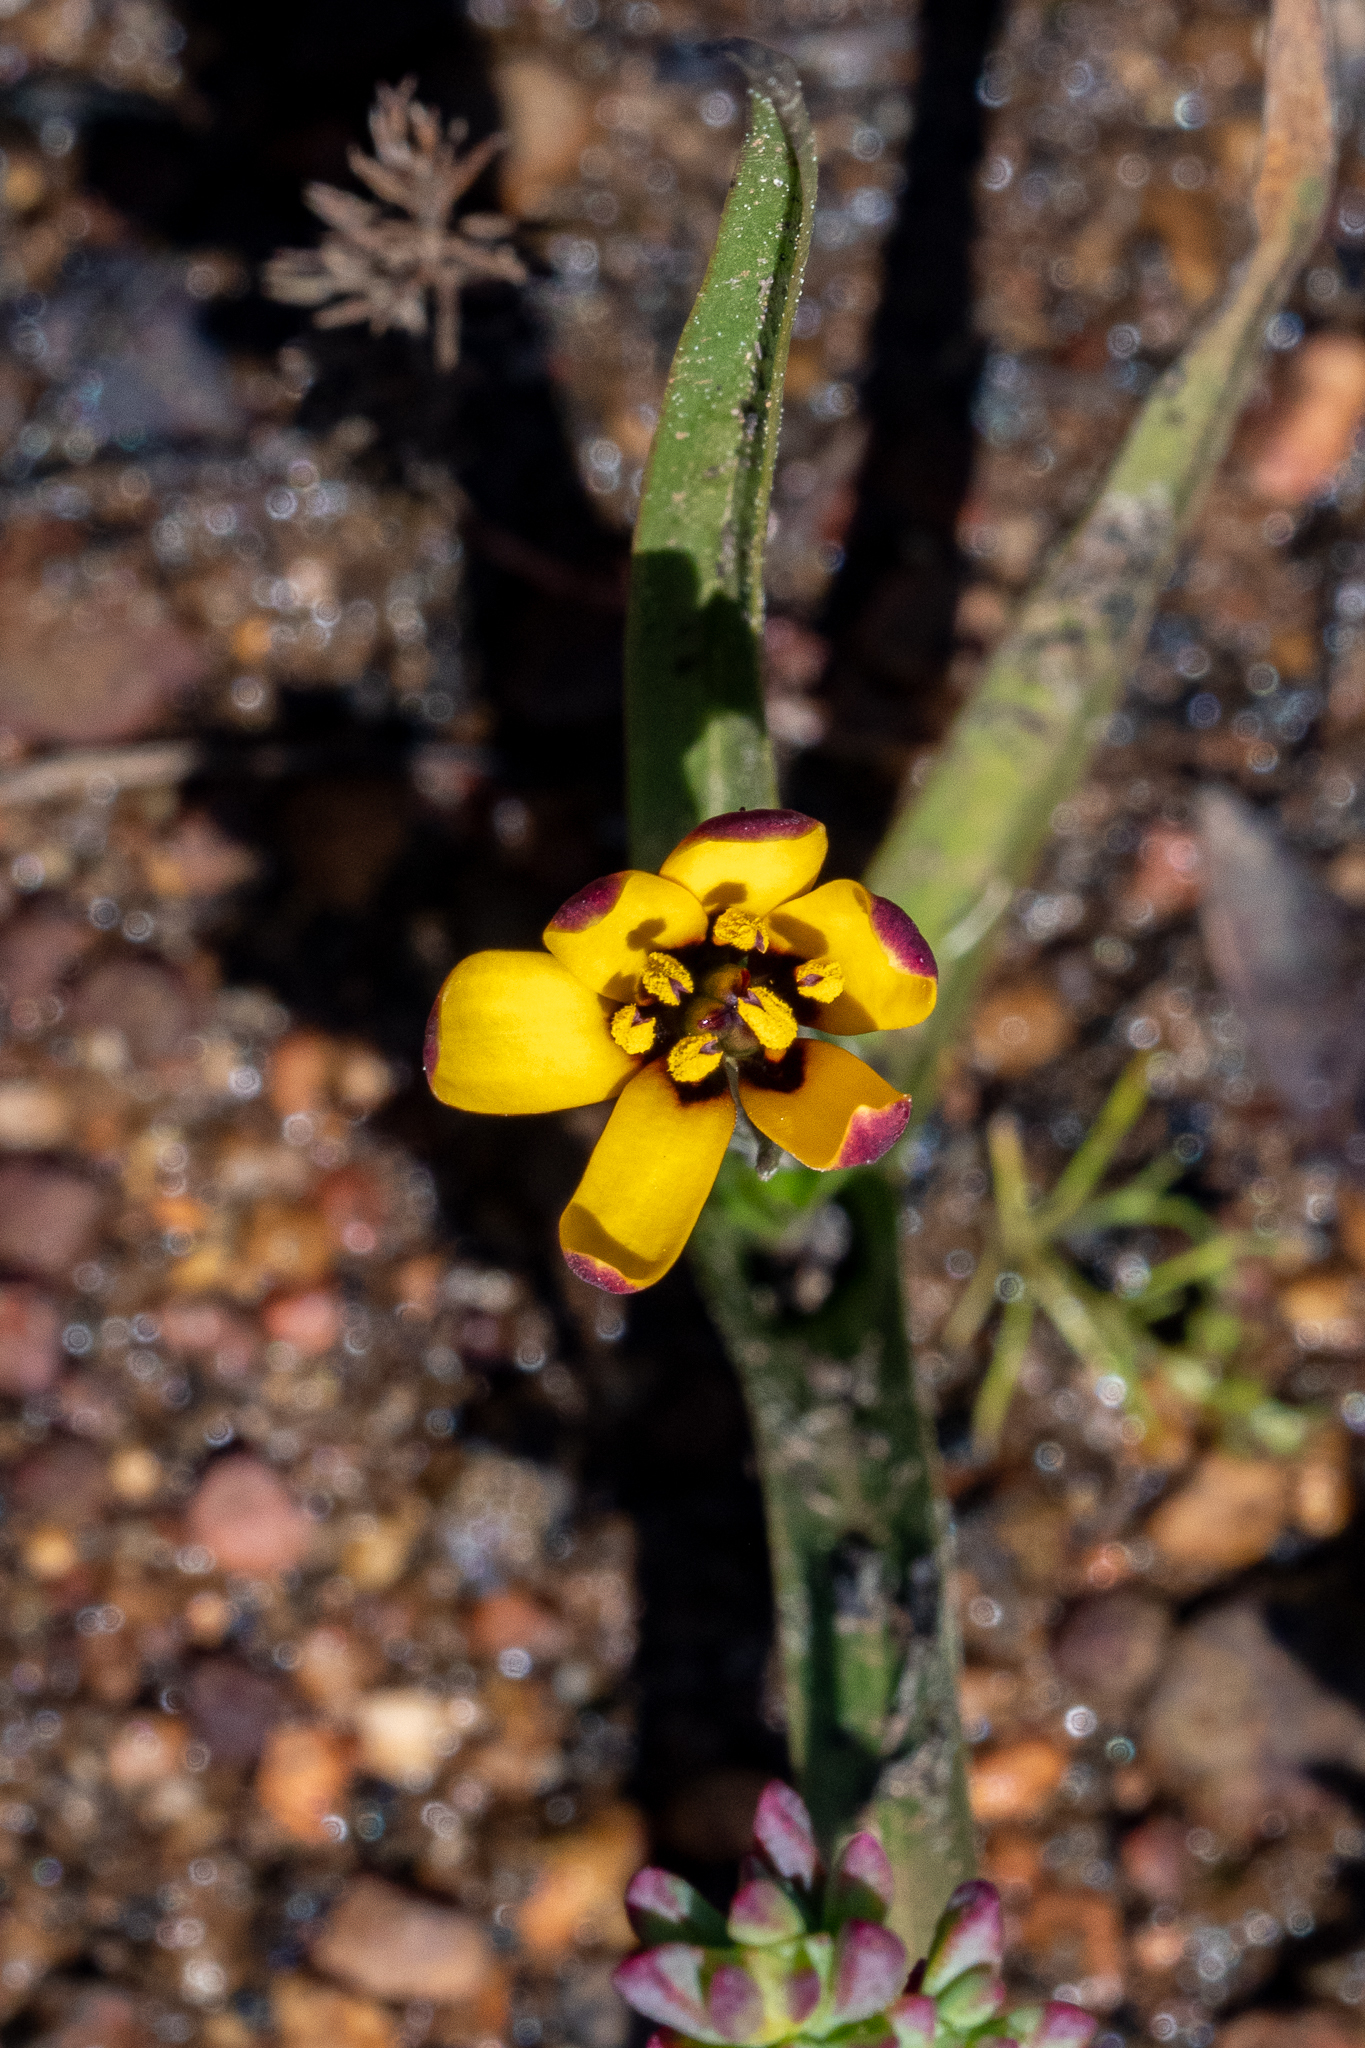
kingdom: Plantae
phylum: Tracheophyta
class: Liliopsida
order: Liliales
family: Colchicaceae
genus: Baeometra
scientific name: Baeometra uniflora
